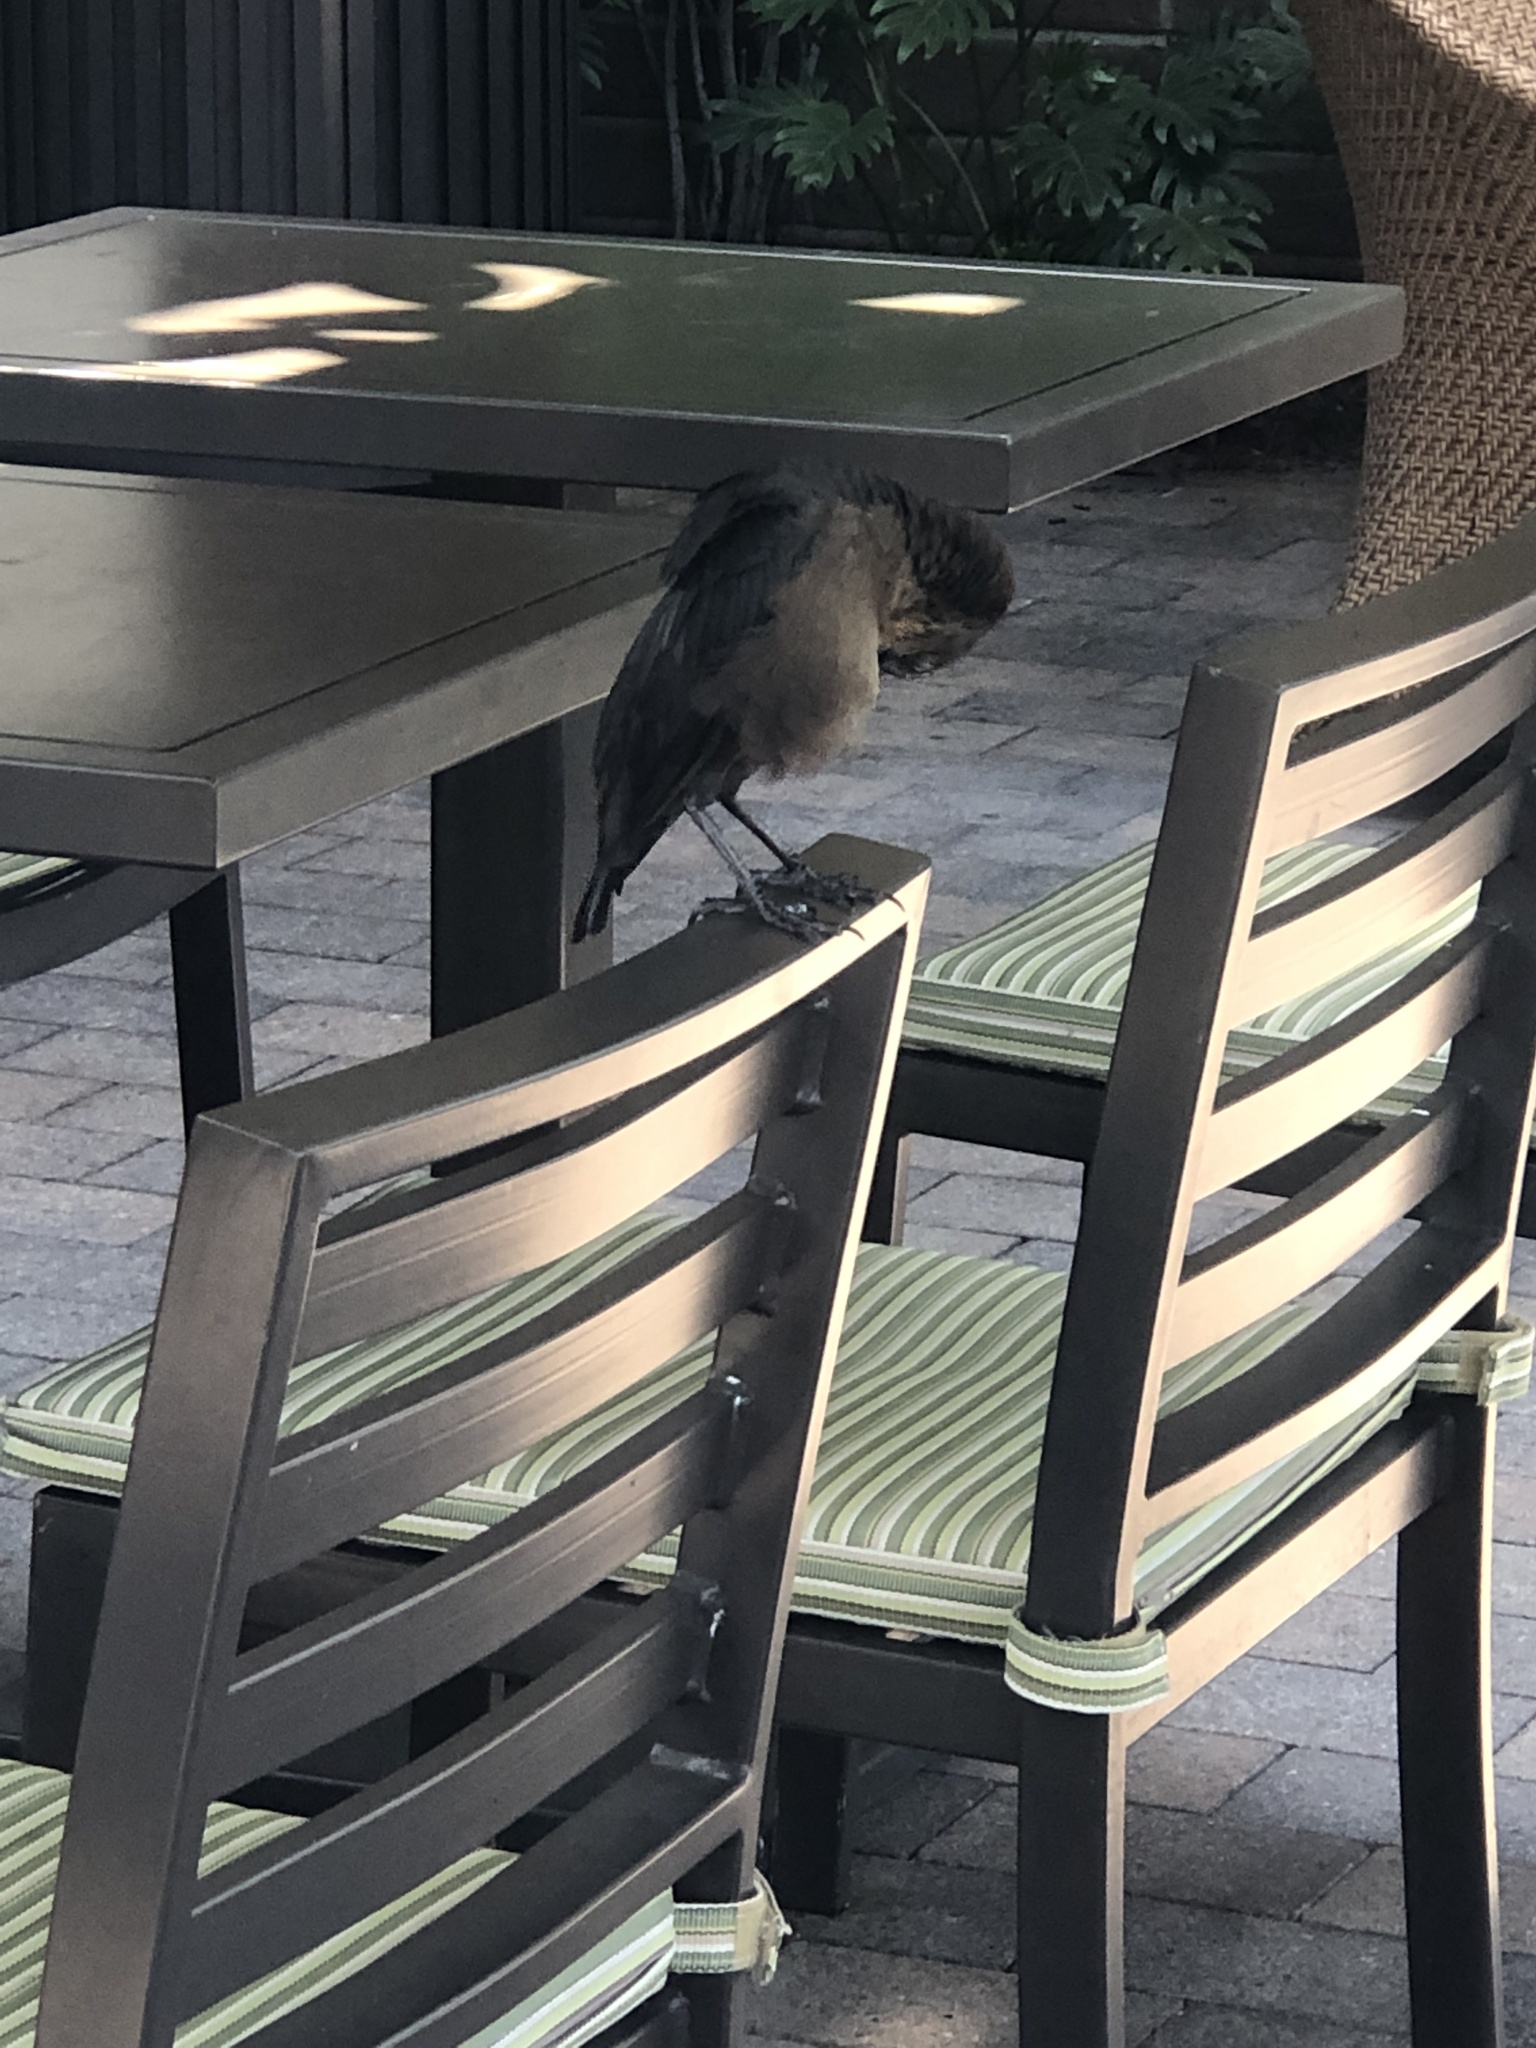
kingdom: Animalia
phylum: Chordata
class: Aves
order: Passeriformes
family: Icteridae
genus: Euphagus
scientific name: Euphagus cyanocephalus
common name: Brewer's blackbird
